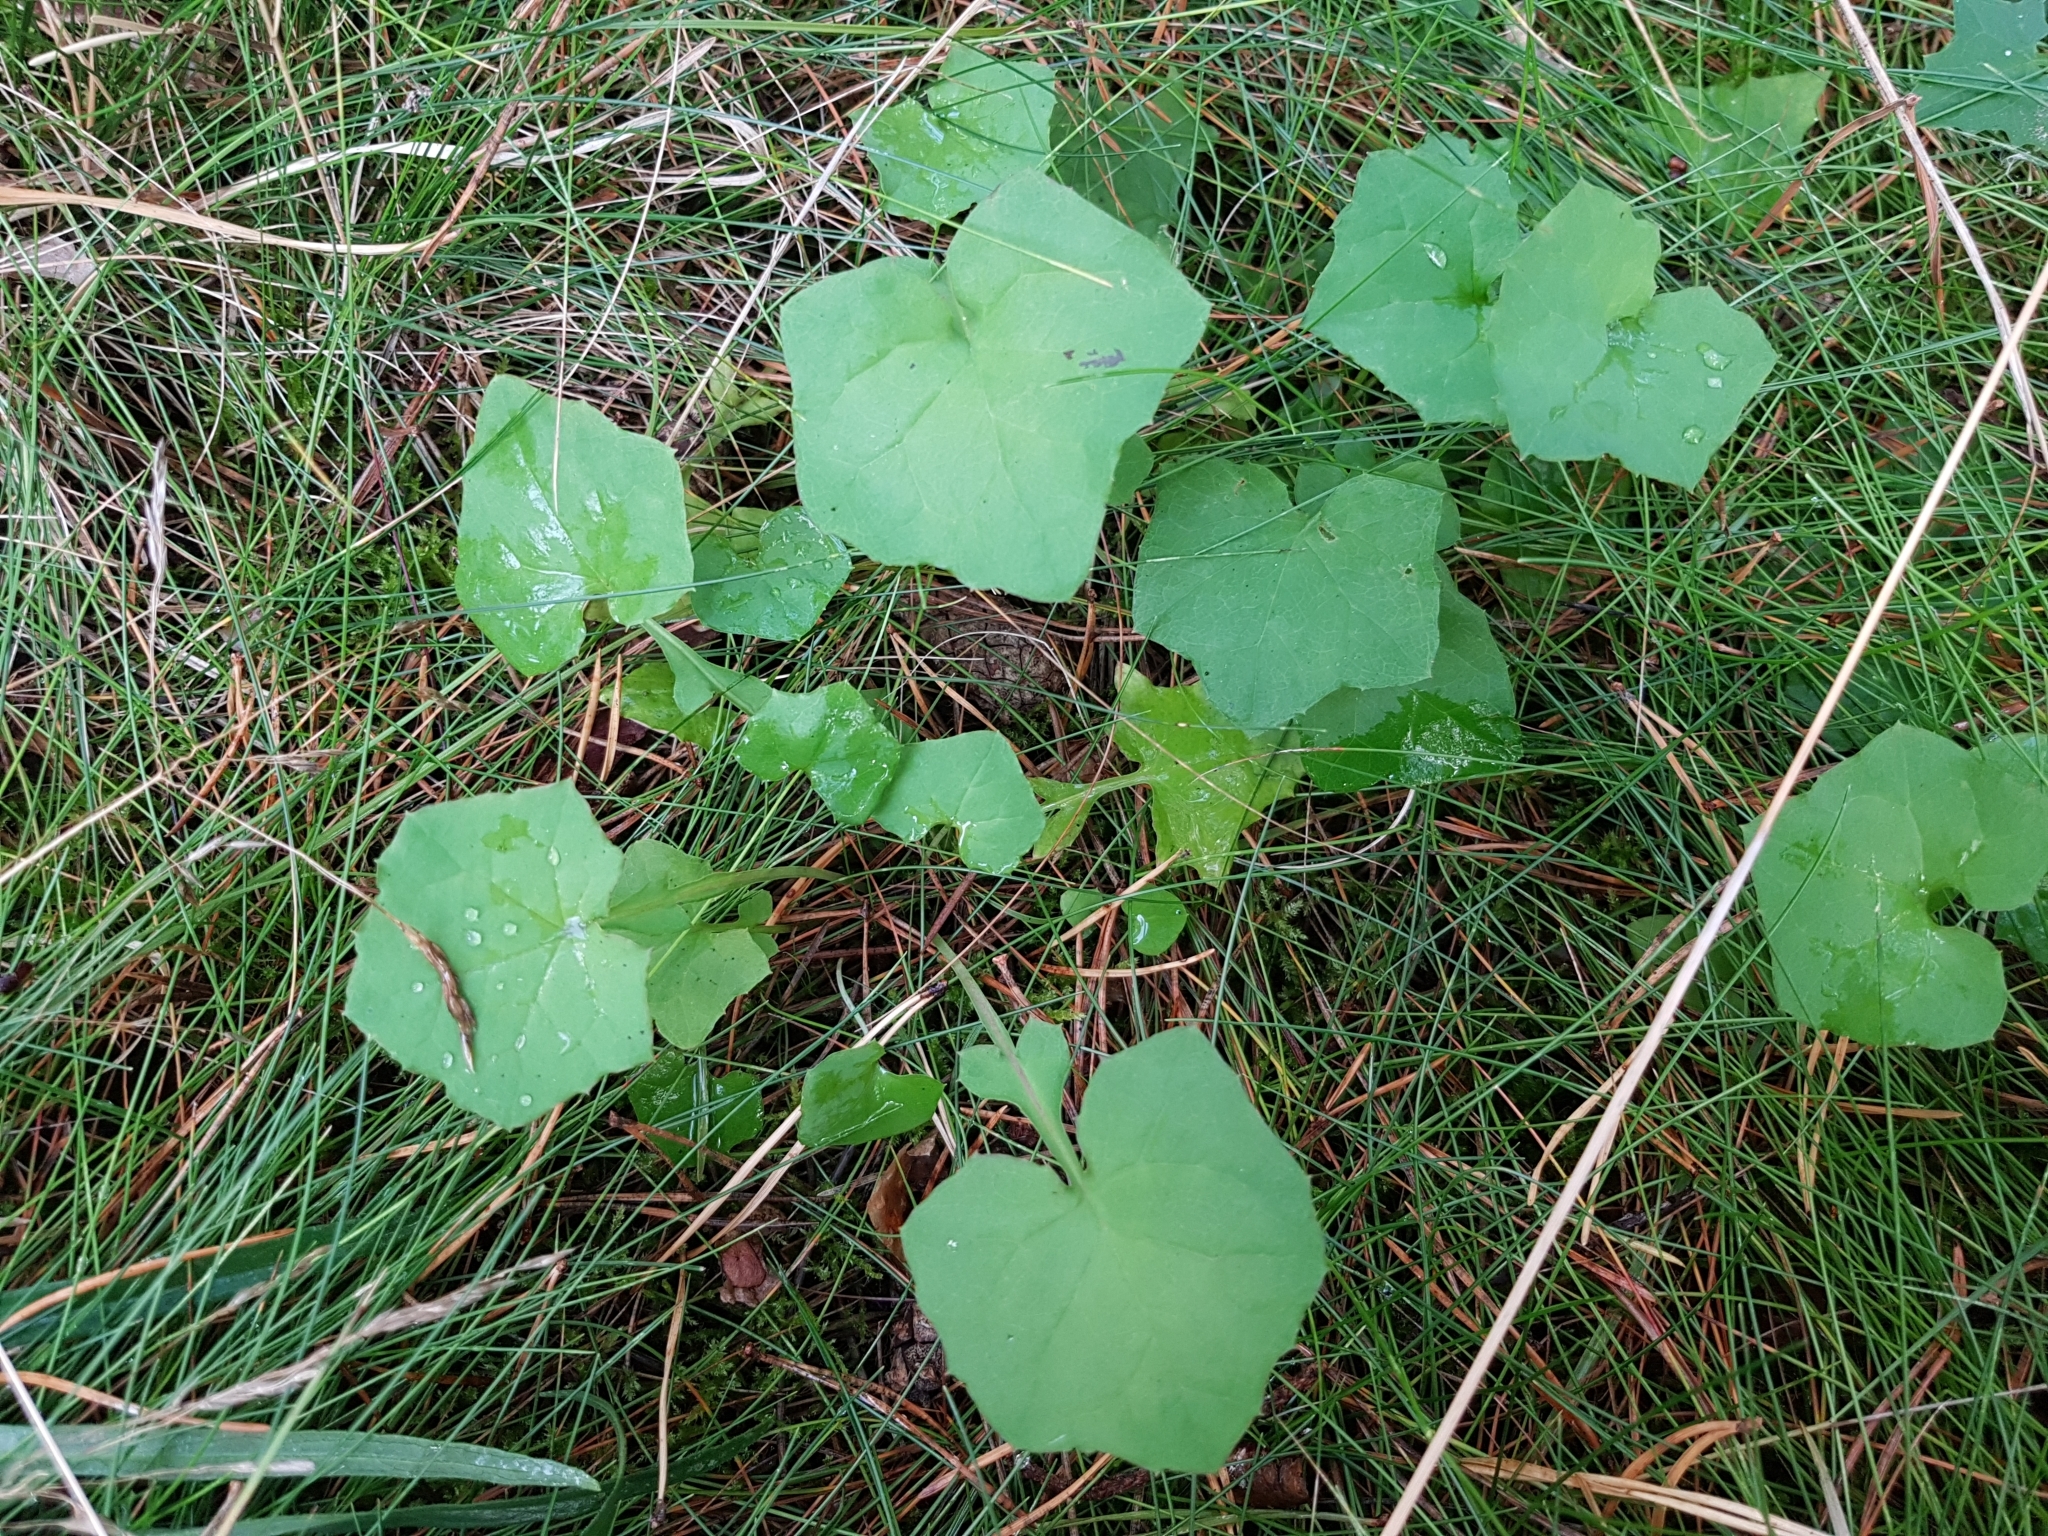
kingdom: Plantae
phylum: Tracheophyta
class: Magnoliopsida
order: Asterales
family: Asteraceae
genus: Mycelis
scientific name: Mycelis muralis
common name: Wall lettuce
